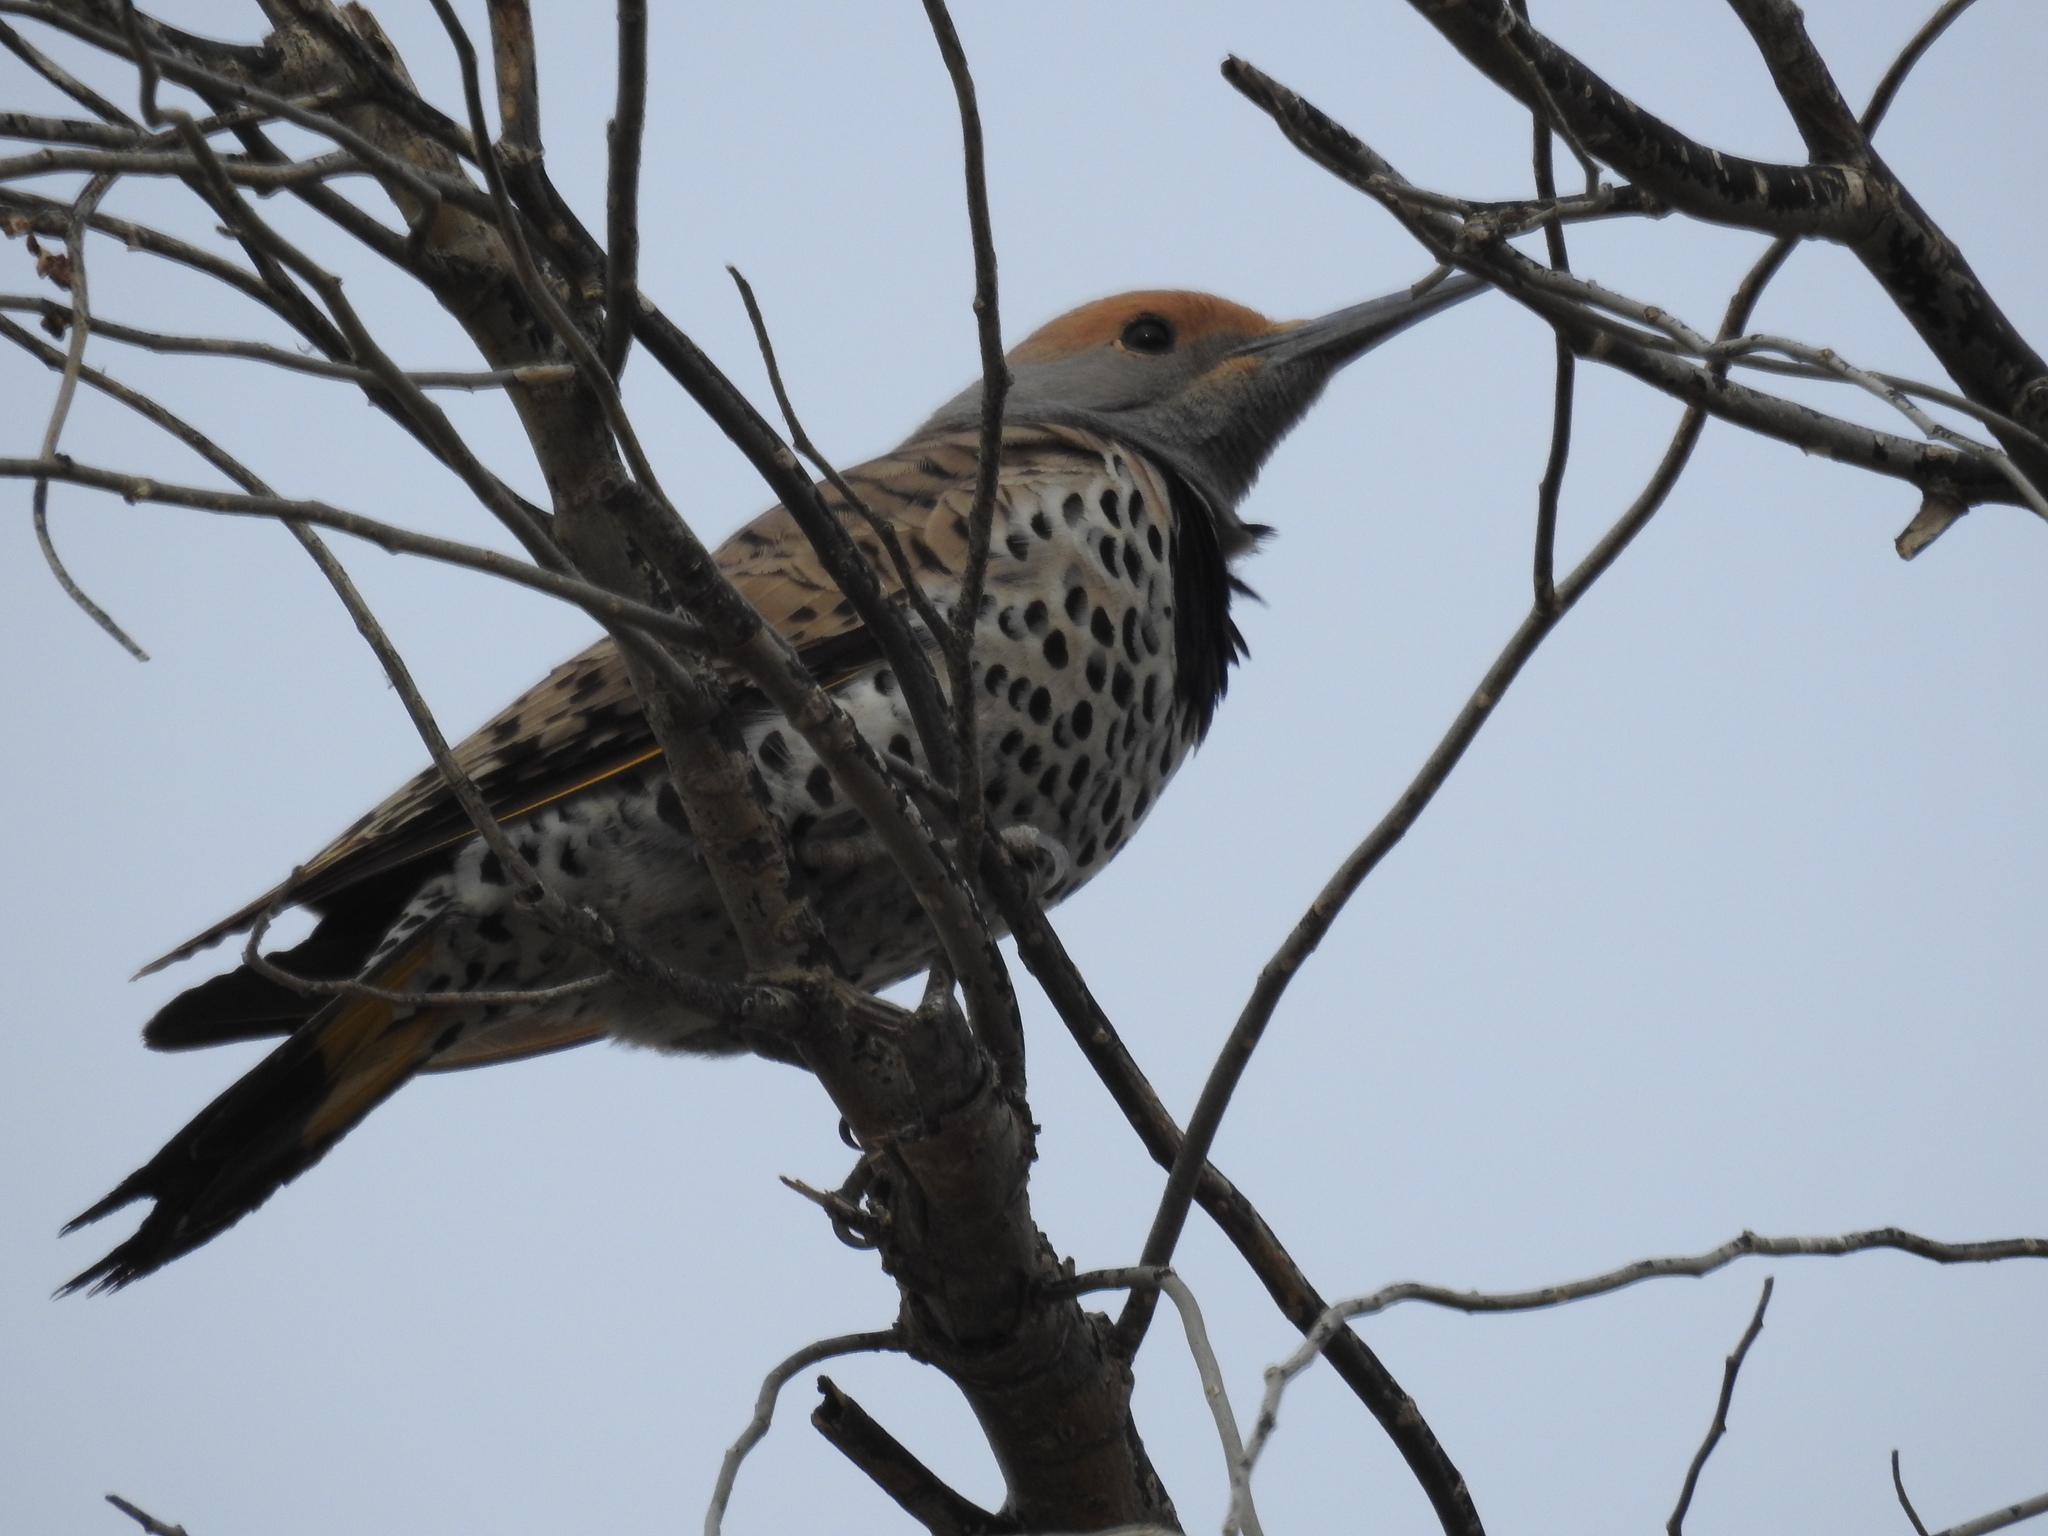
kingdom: Animalia
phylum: Chordata
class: Aves
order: Piciformes
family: Picidae
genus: Colaptes
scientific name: Colaptes chrysoides
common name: Gilded flicker
